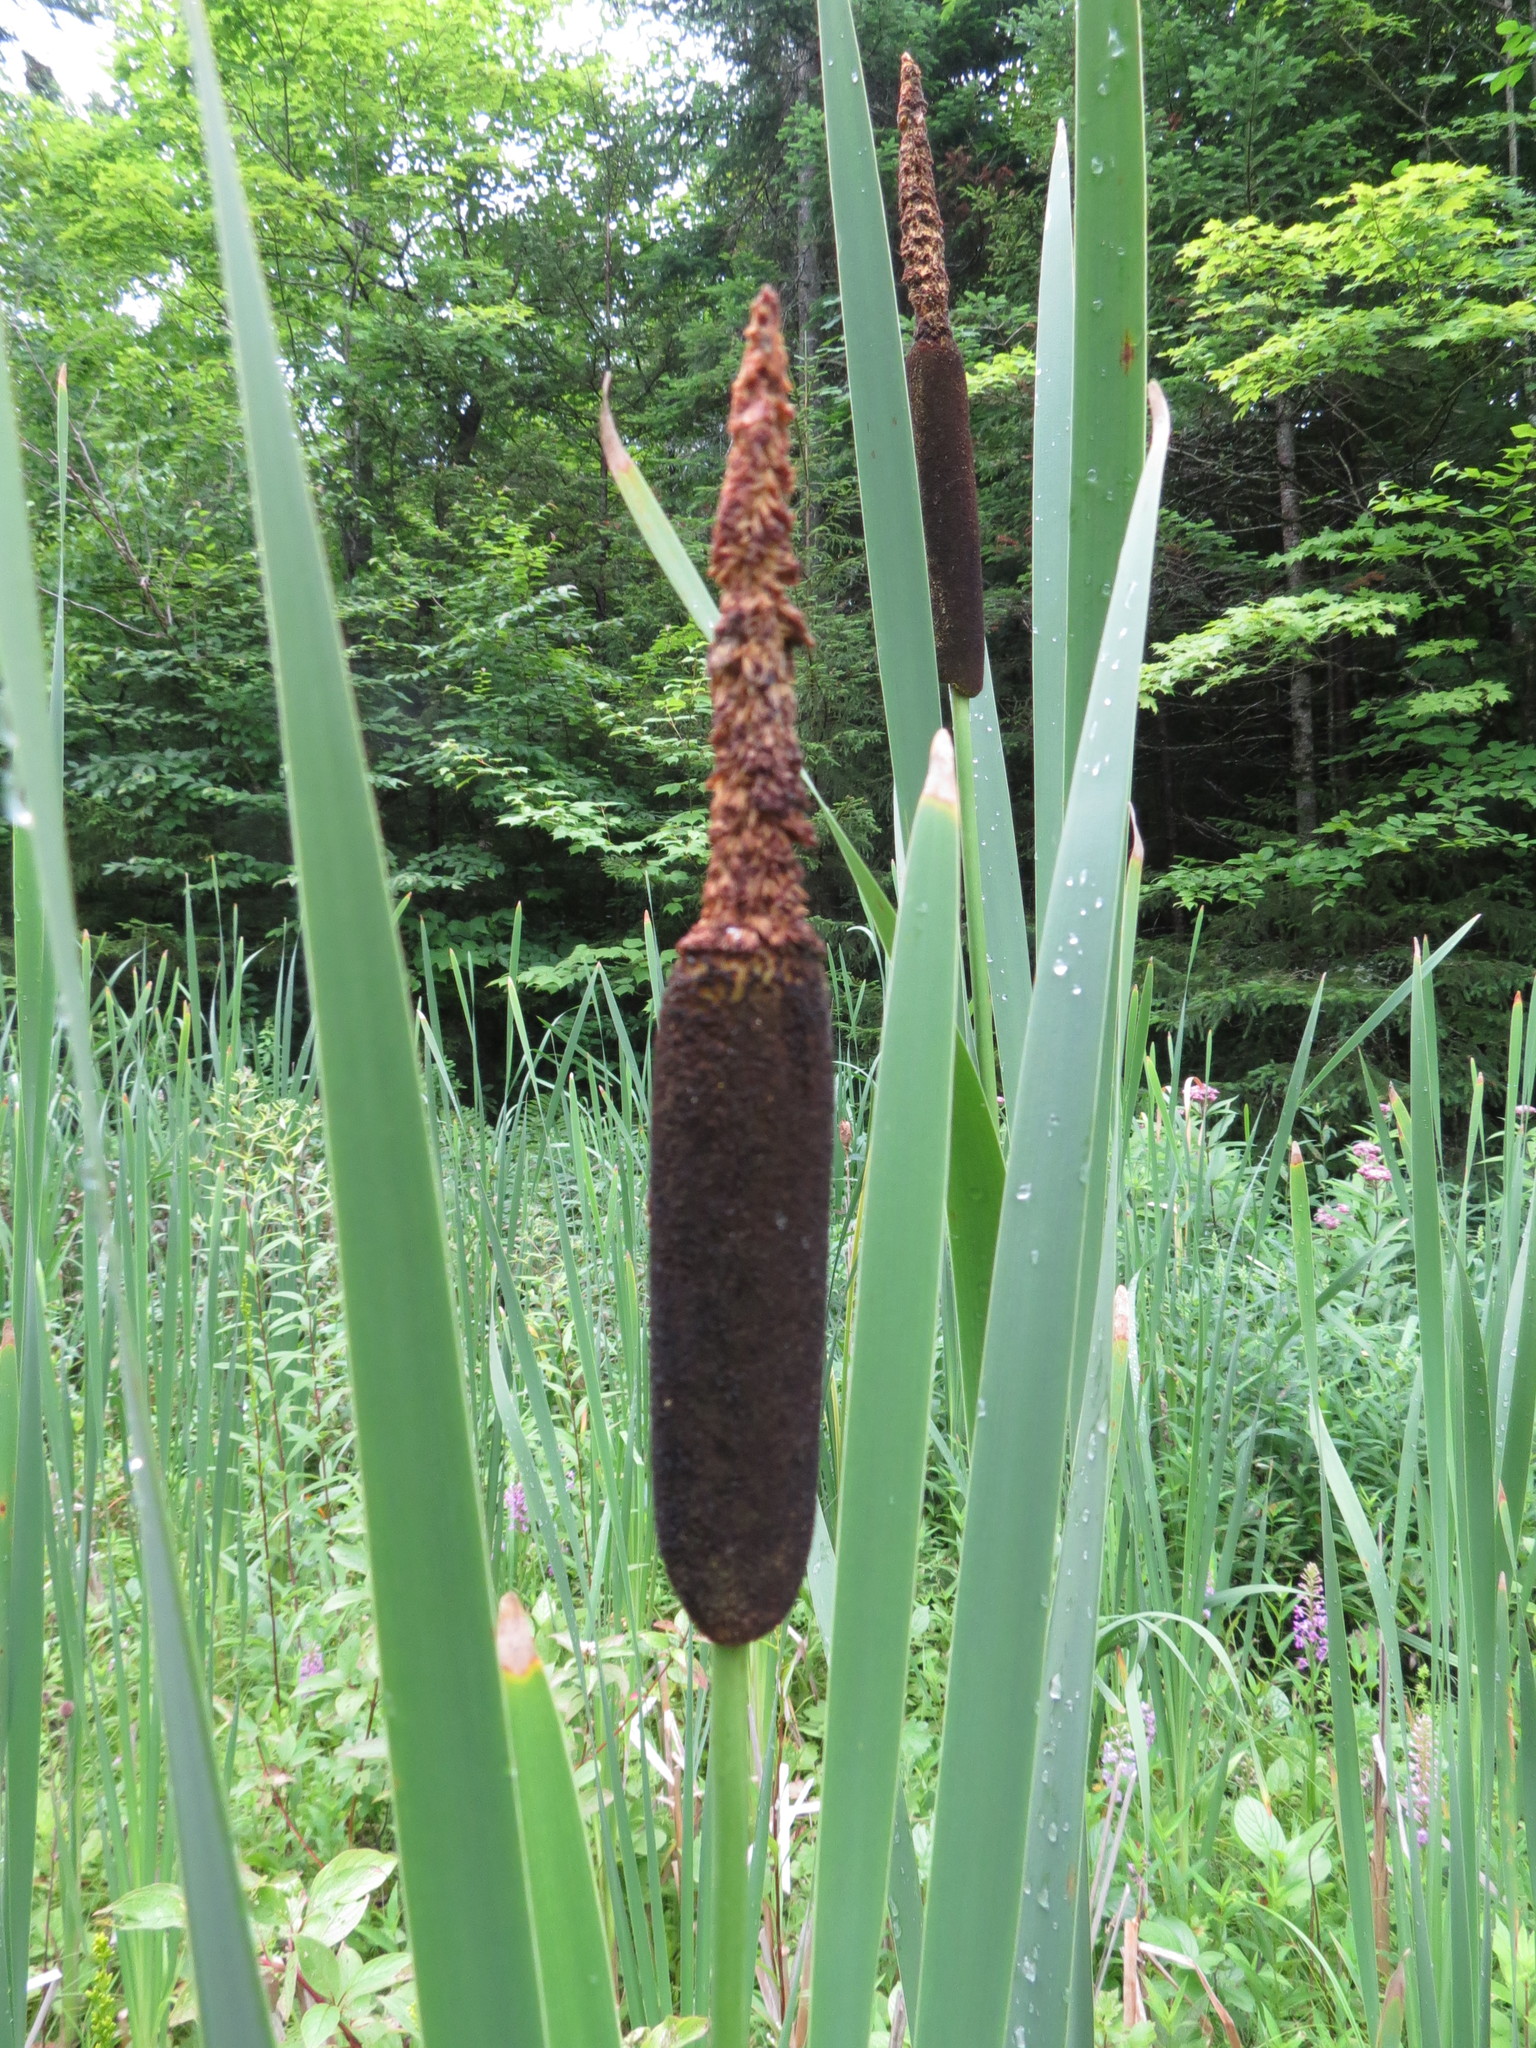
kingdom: Plantae
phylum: Tracheophyta
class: Liliopsida
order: Poales
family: Typhaceae
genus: Typha
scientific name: Typha latifolia
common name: Broadleaf cattail
